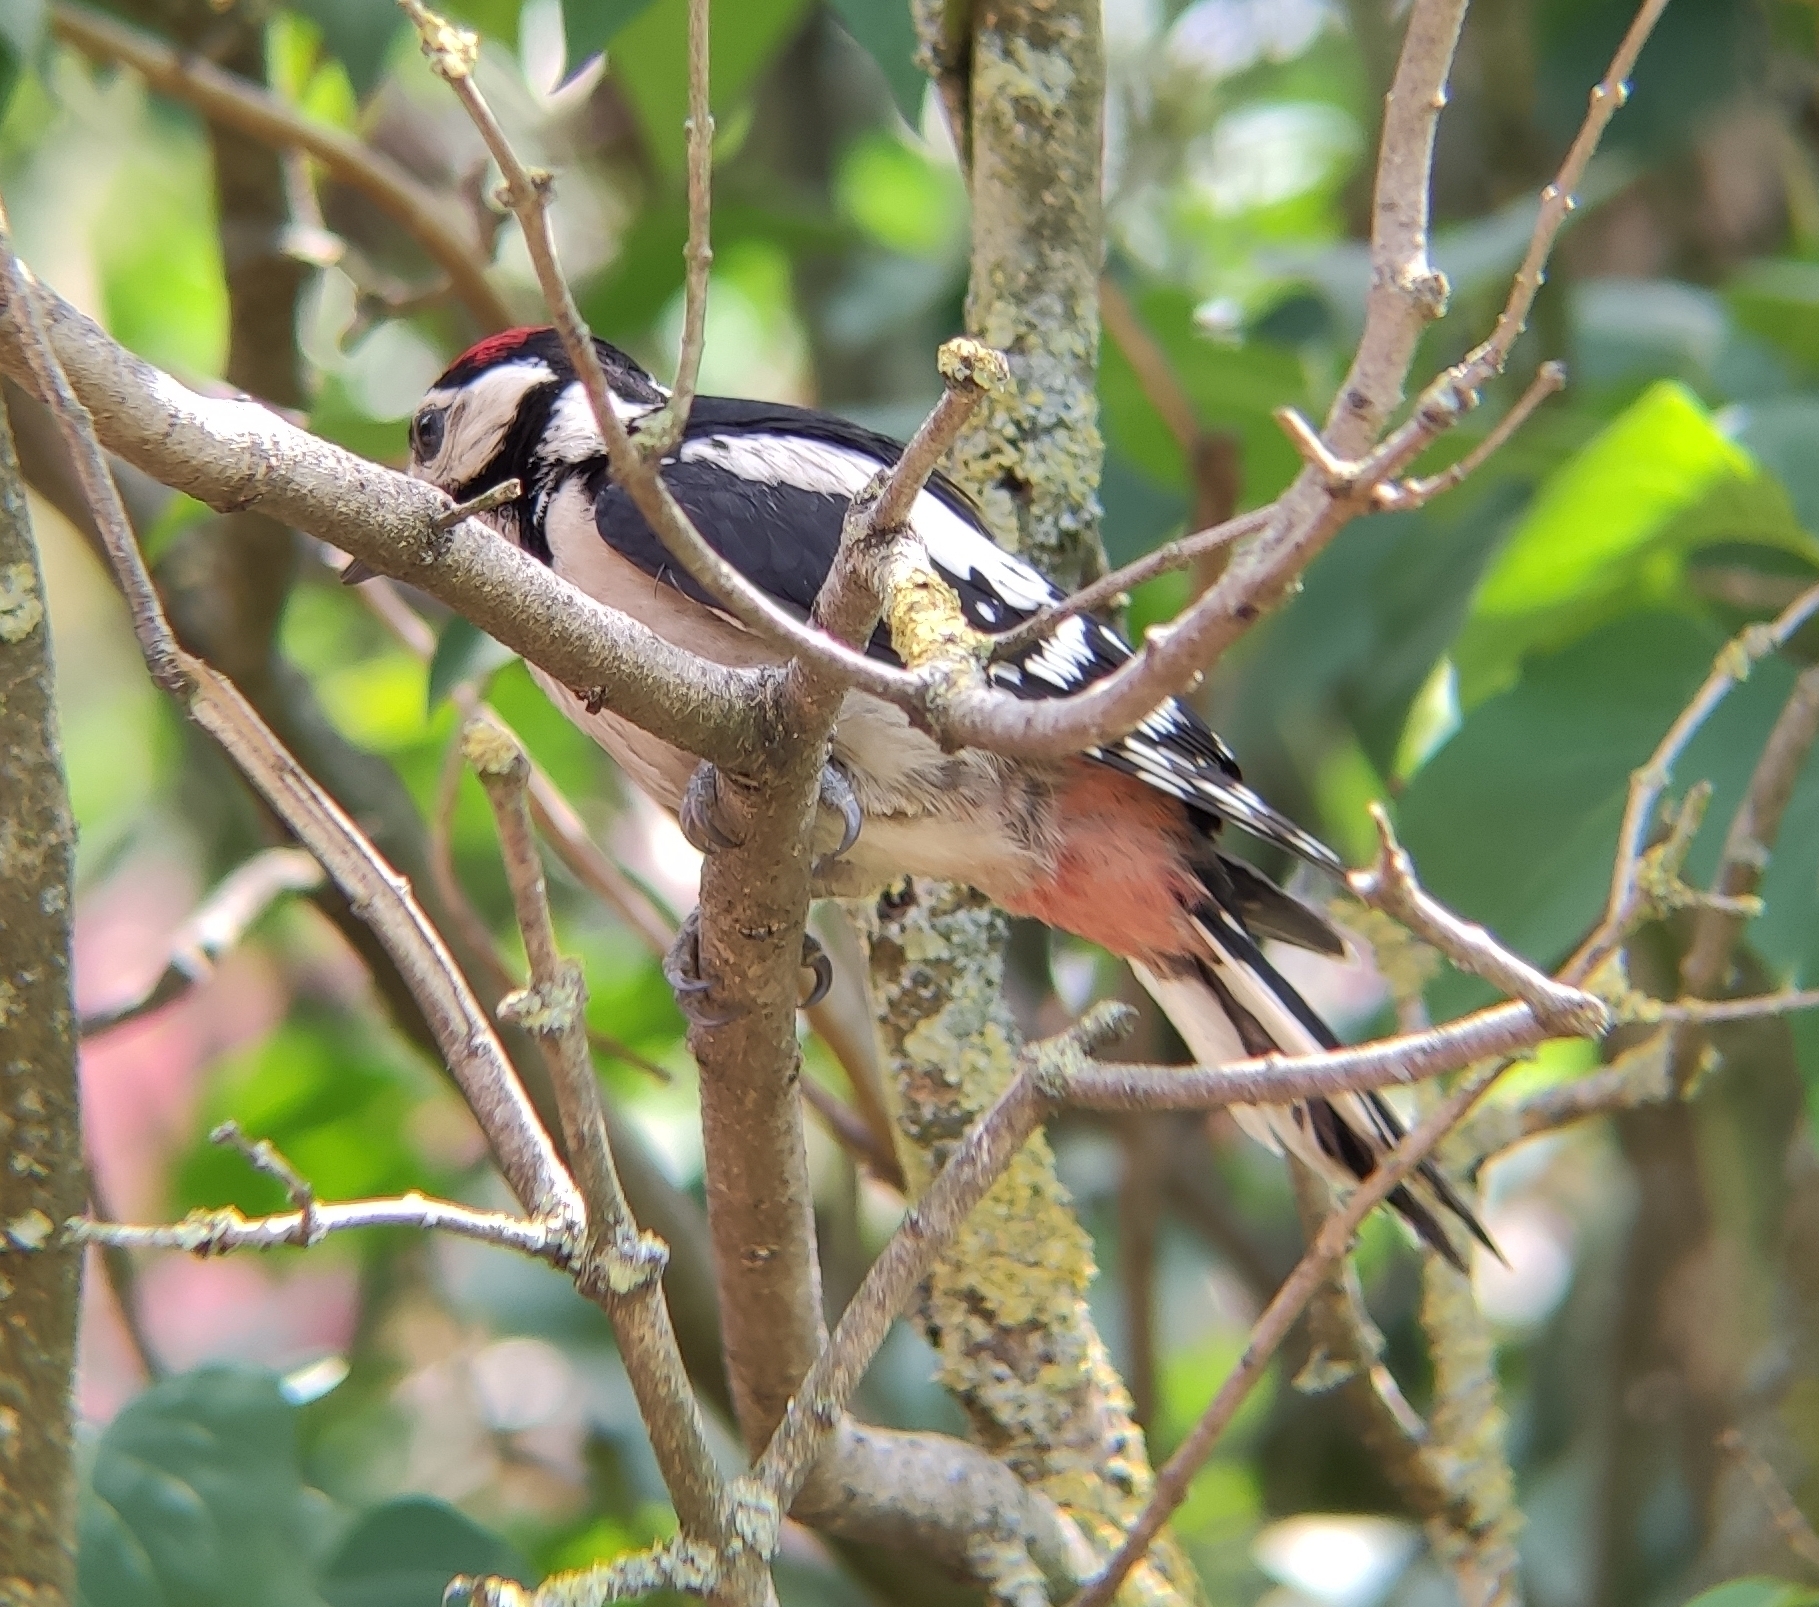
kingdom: Animalia
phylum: Chordata
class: Aves
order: Piciformes
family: Picidae
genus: Dendrocopos
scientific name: Dendrocopos major
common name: Great spotted woodpecker
